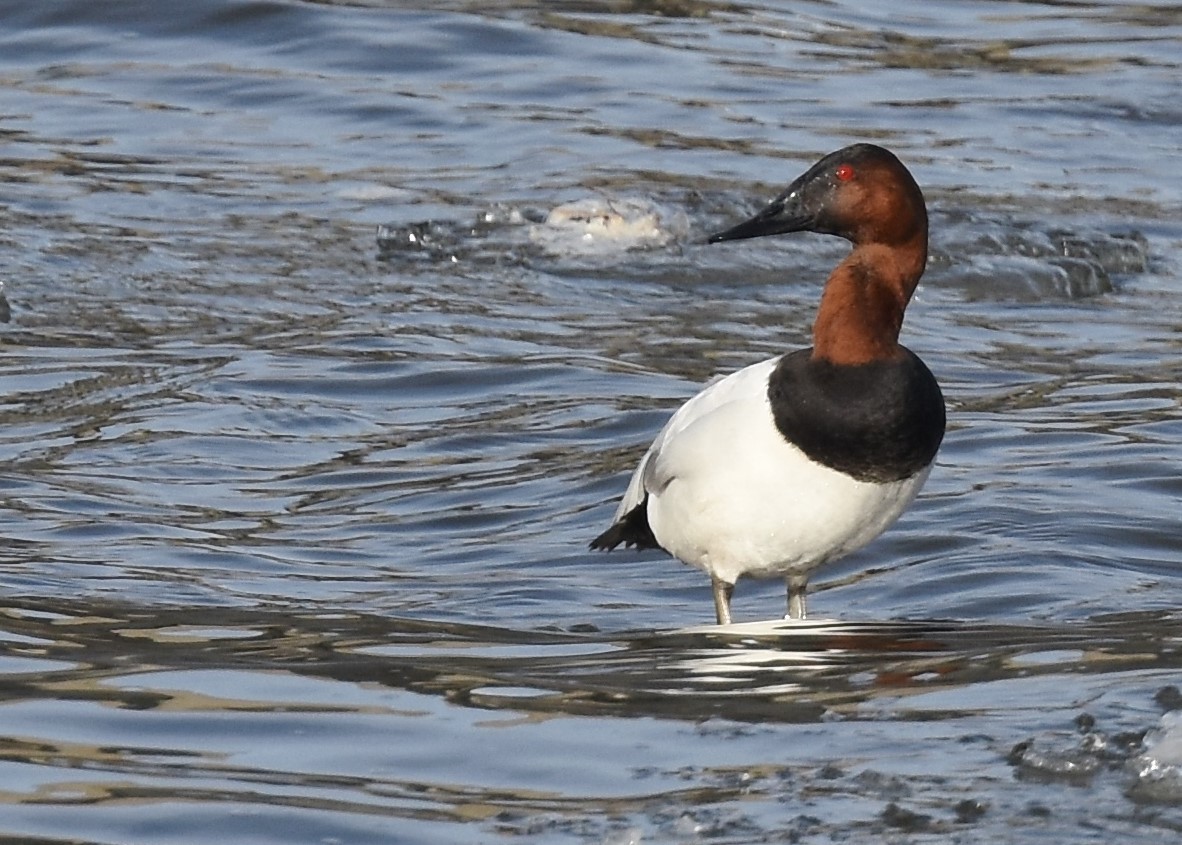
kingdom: Animalia
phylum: Chordata
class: Aves
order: Anseriformes
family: Anatidae
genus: Aythya
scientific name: Aythya valisineria
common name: Canvasback
